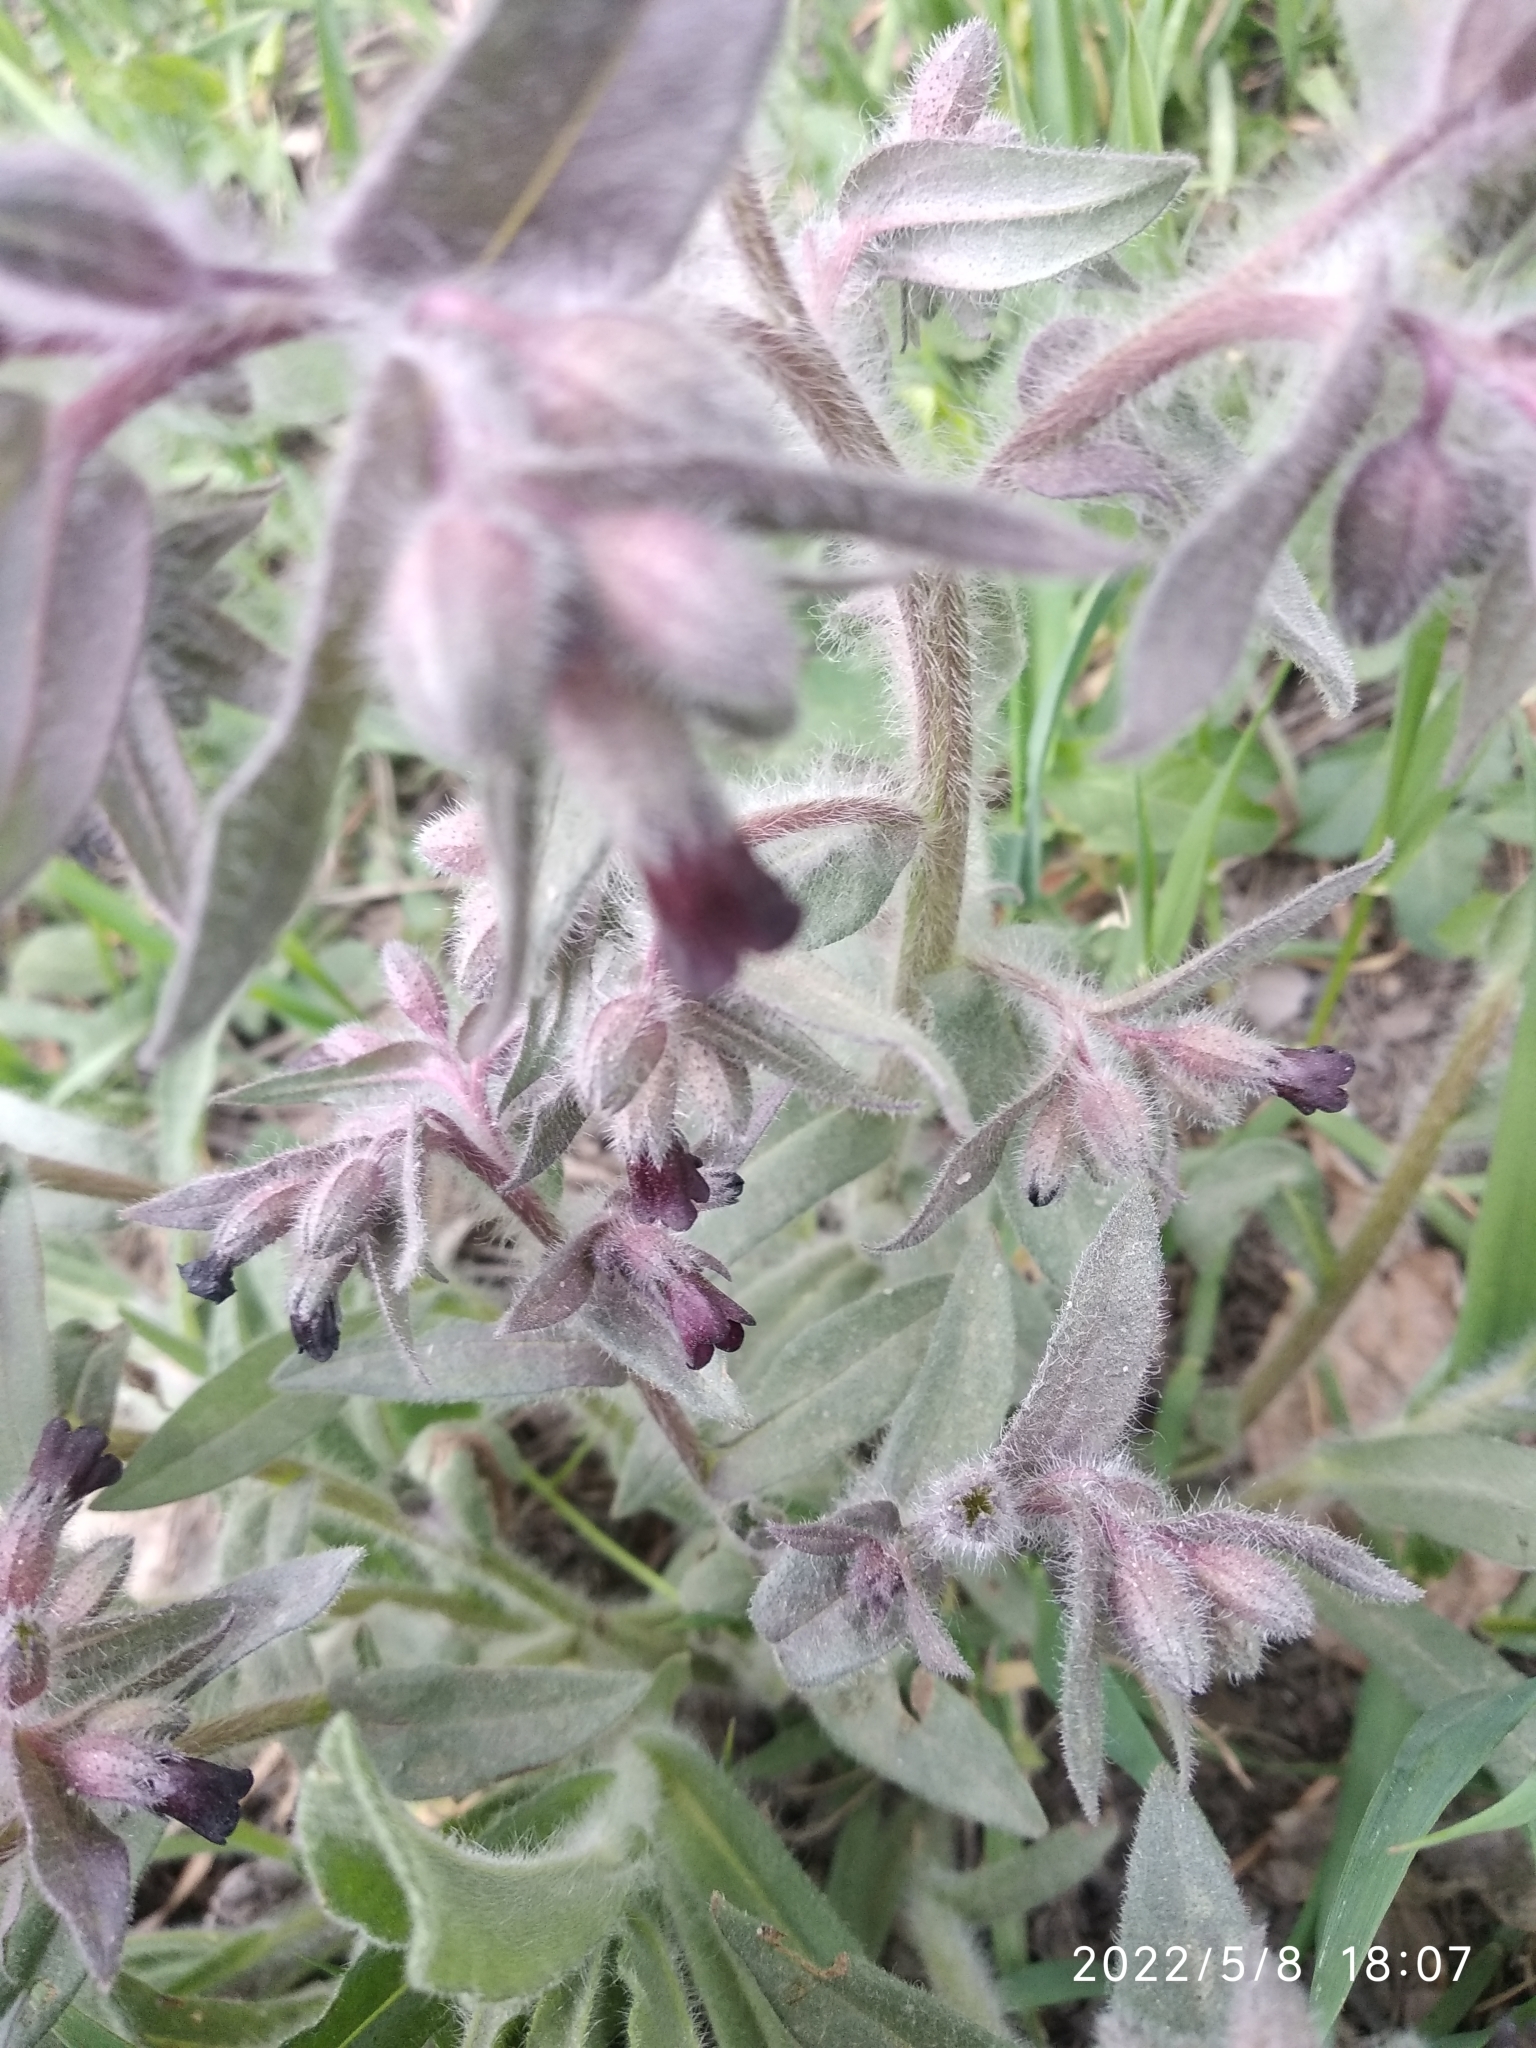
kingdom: Plantae
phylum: Tracheophyta
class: Magnoliopsida
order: Boraginales
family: Boraginaceae
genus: Nonea
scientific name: Nonea pulla
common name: Brown nonea
